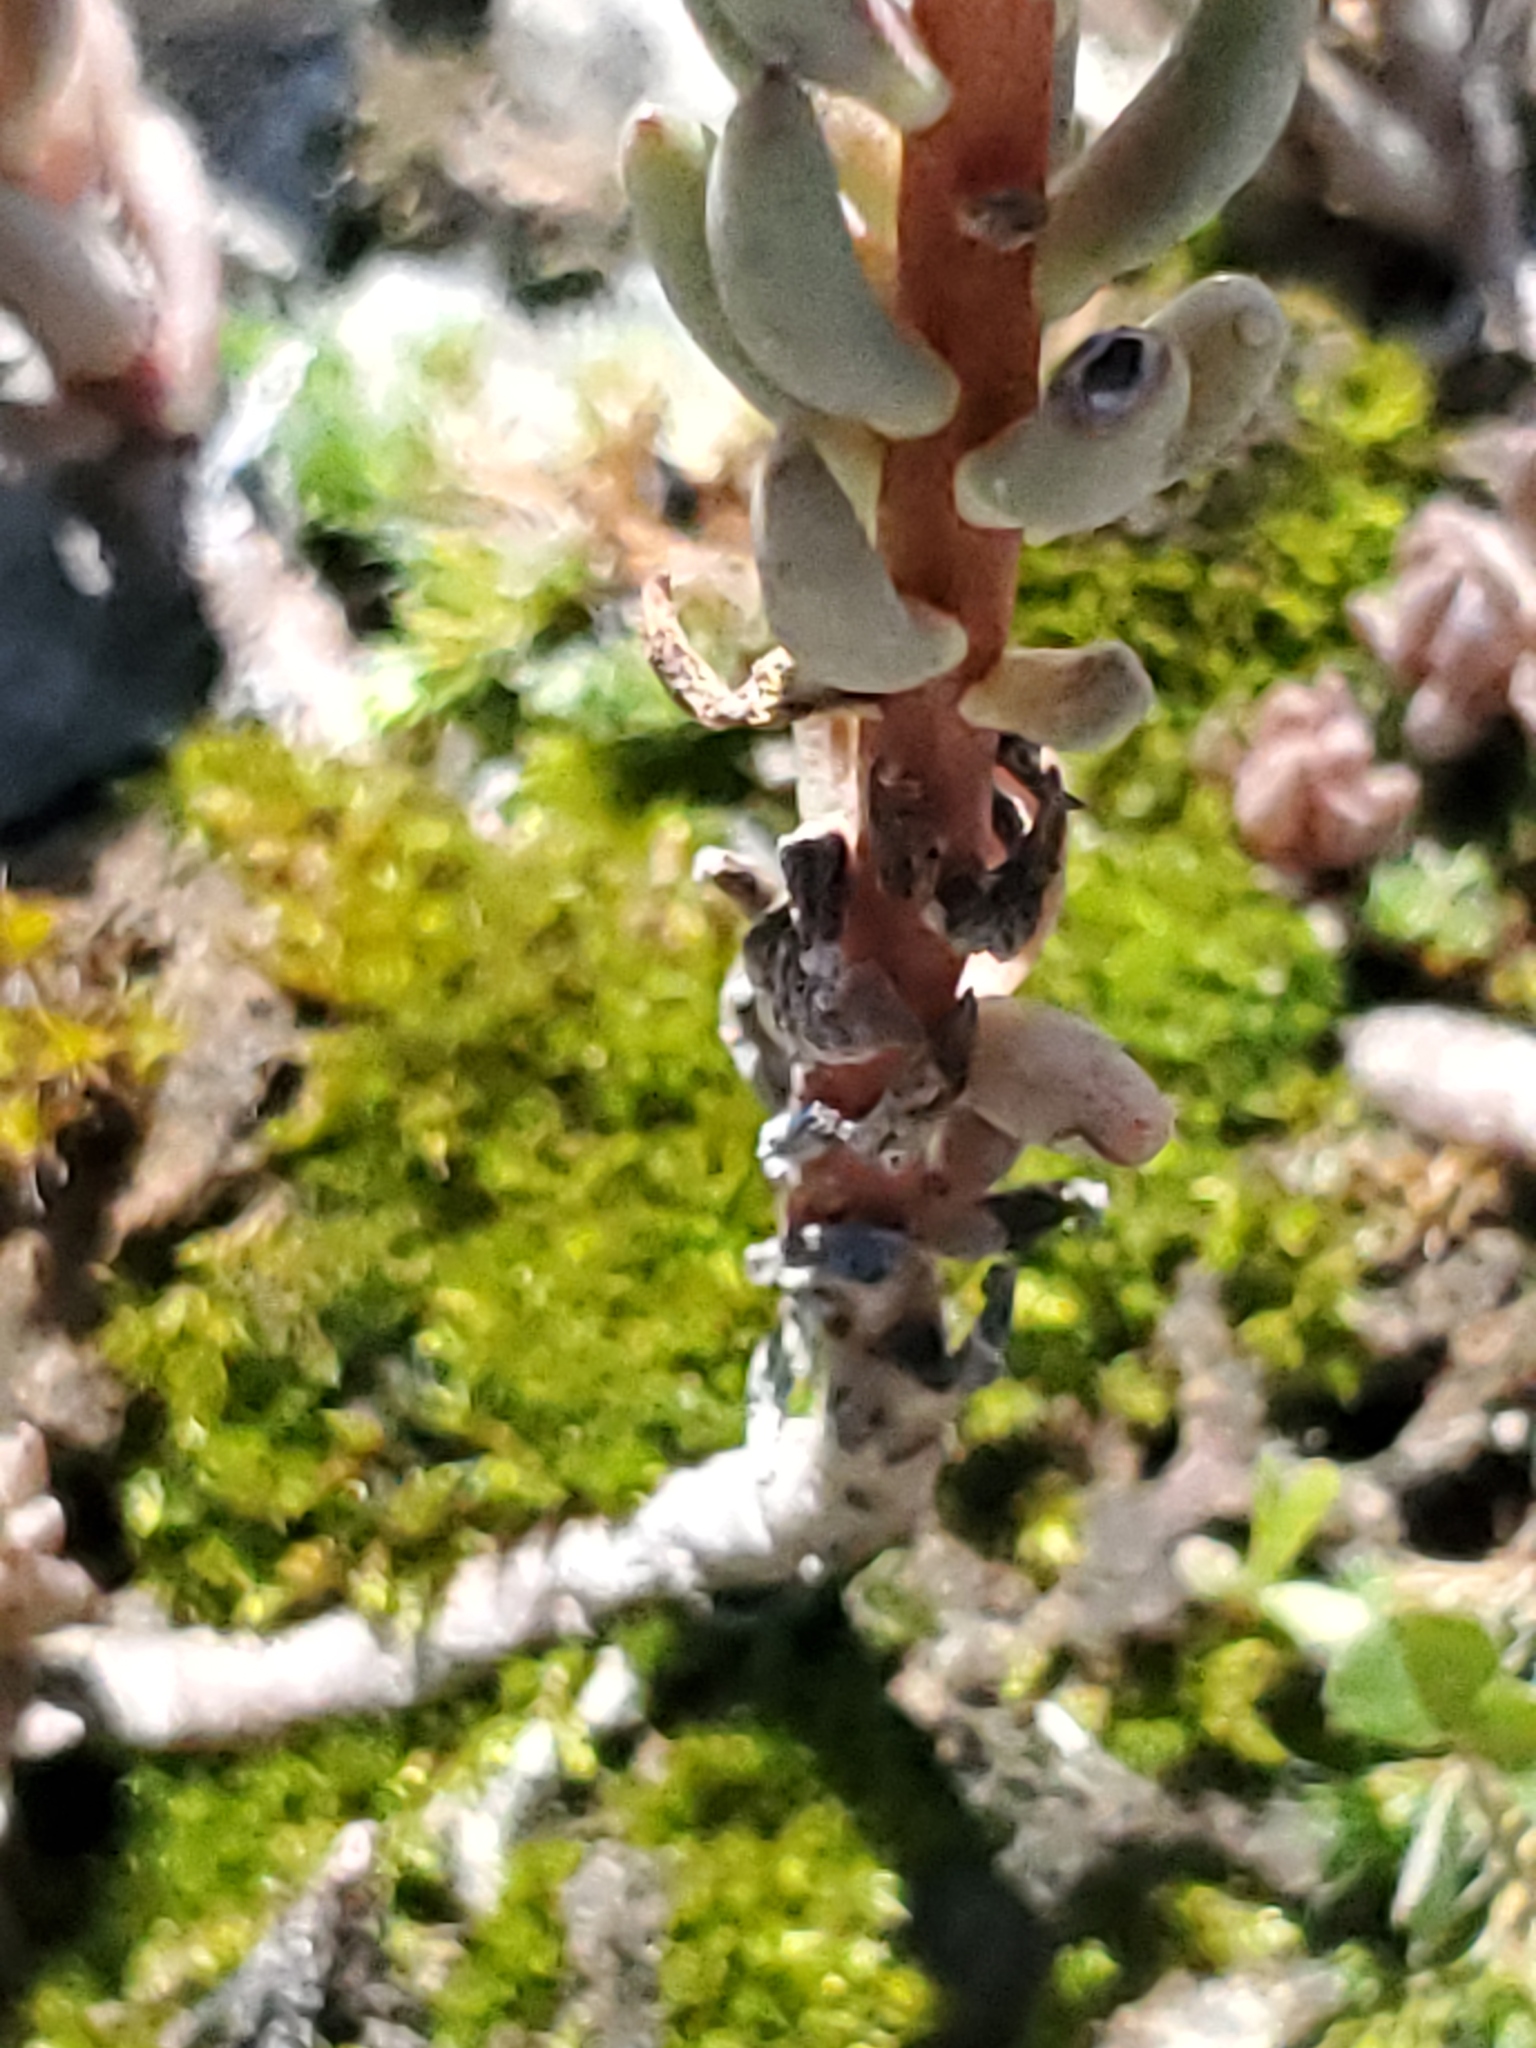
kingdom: Plantae
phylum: Tracheophyta
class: Magnoliopsida
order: Saxifragales
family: Crassulaceae
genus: Sedum
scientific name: Sedum lanceolatum
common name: Common stonecrop
